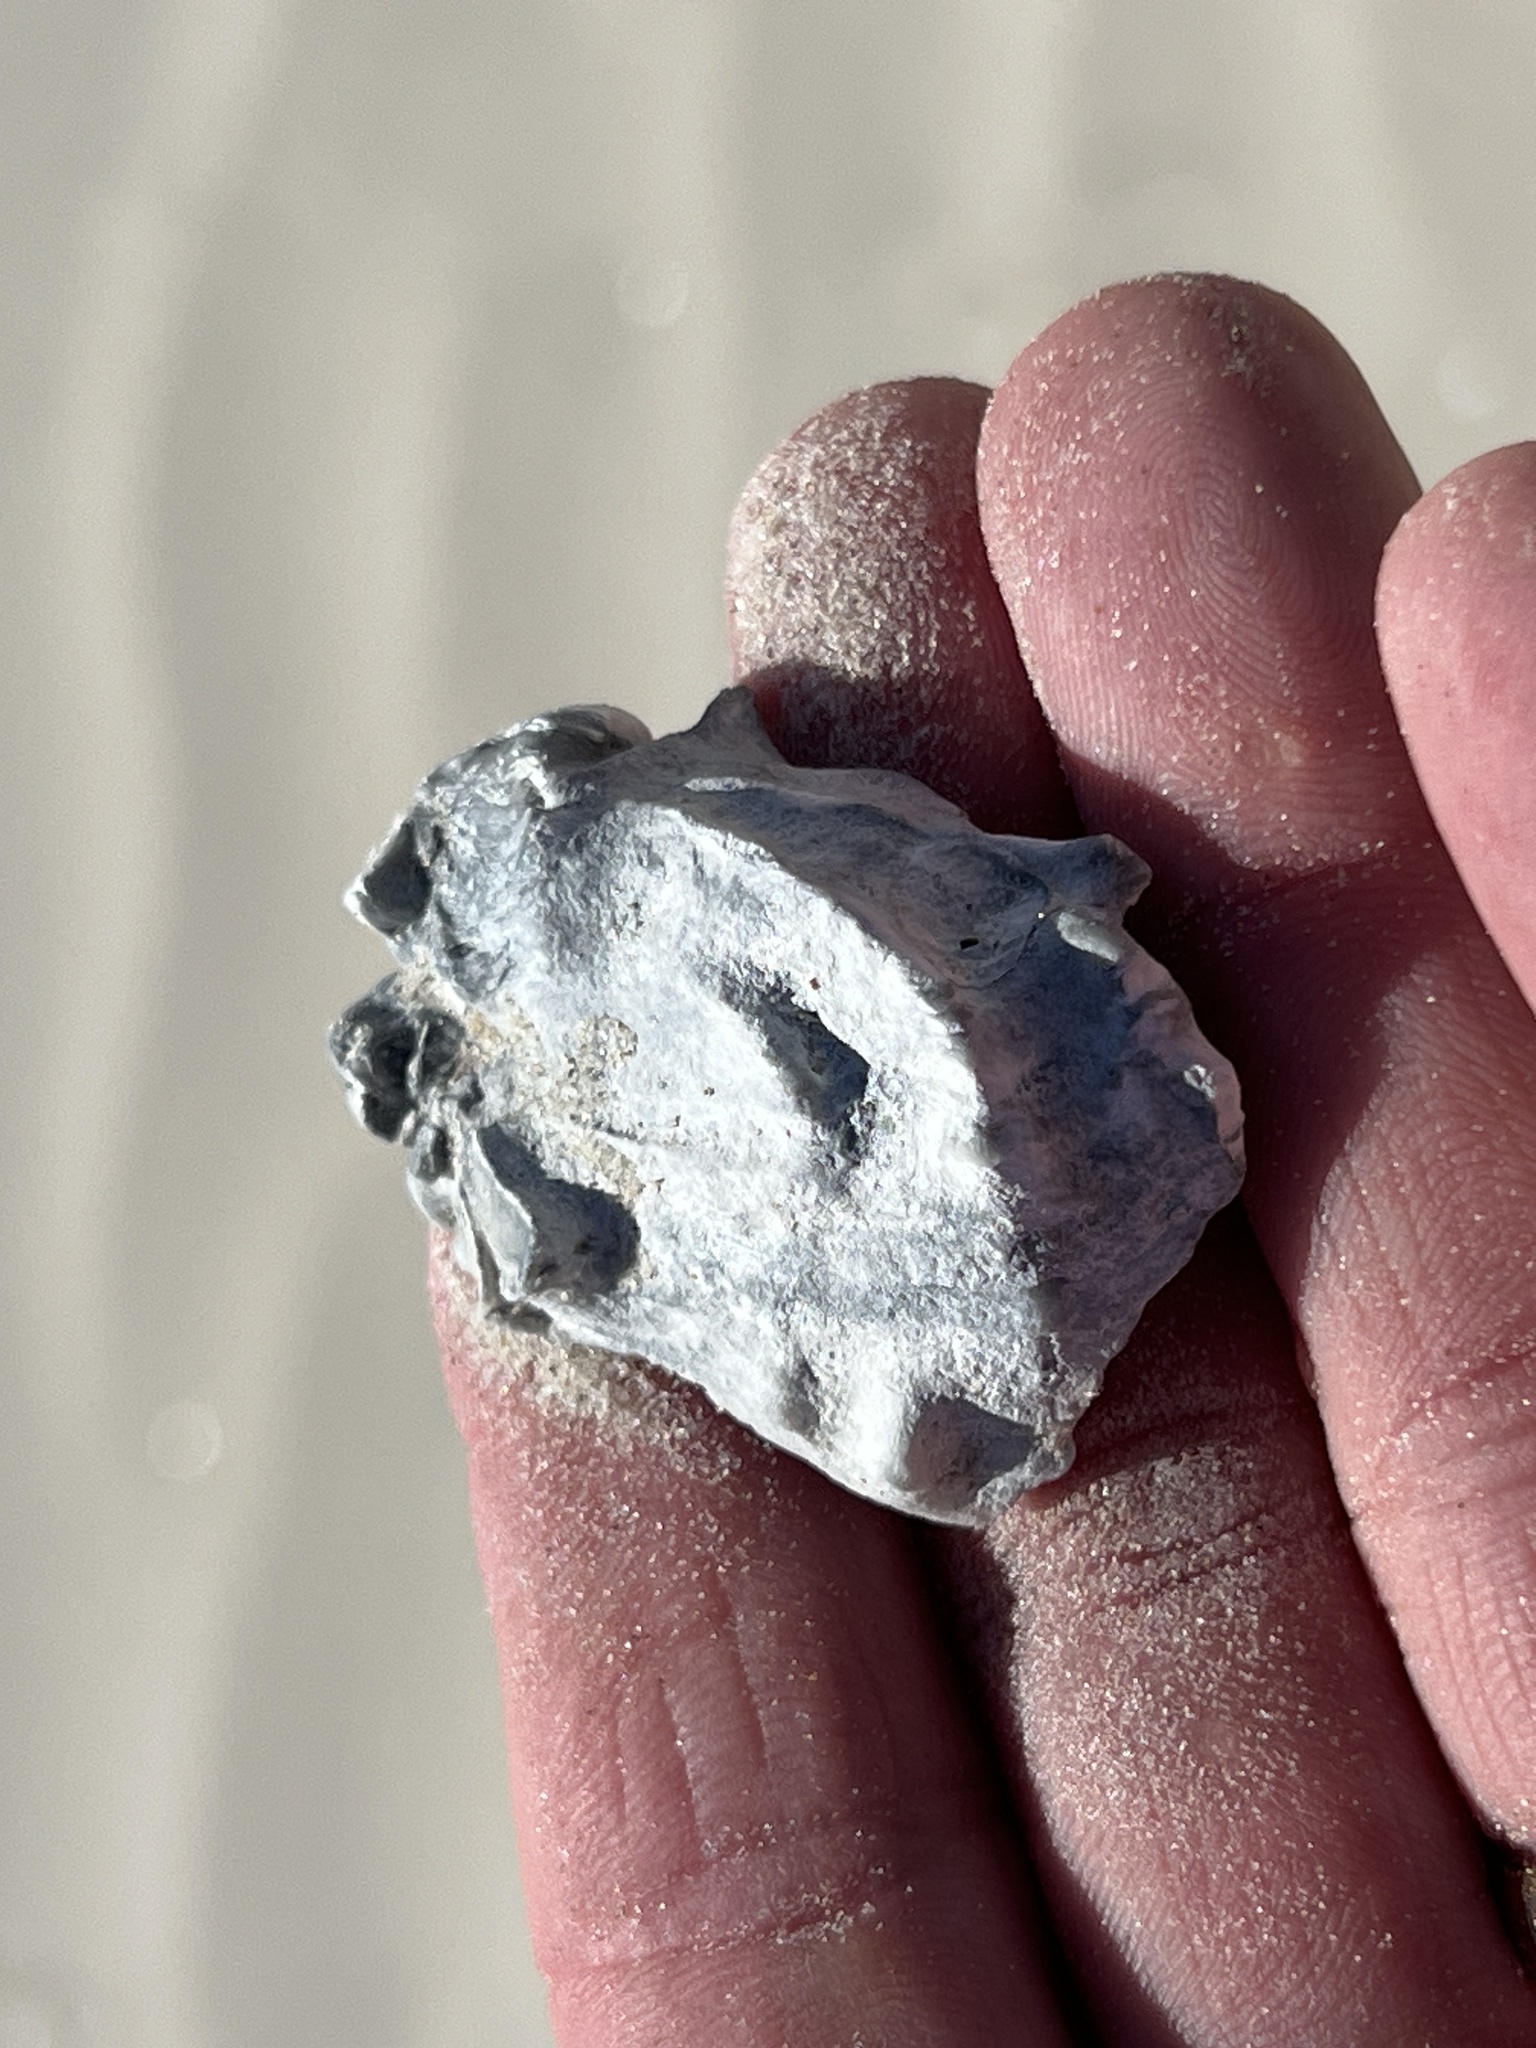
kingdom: Animalia
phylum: Mollusca
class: Bivalvia
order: Ostreida
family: Ostreidae
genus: Crassostrea
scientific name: Crassostrea virginica
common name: American oyster
